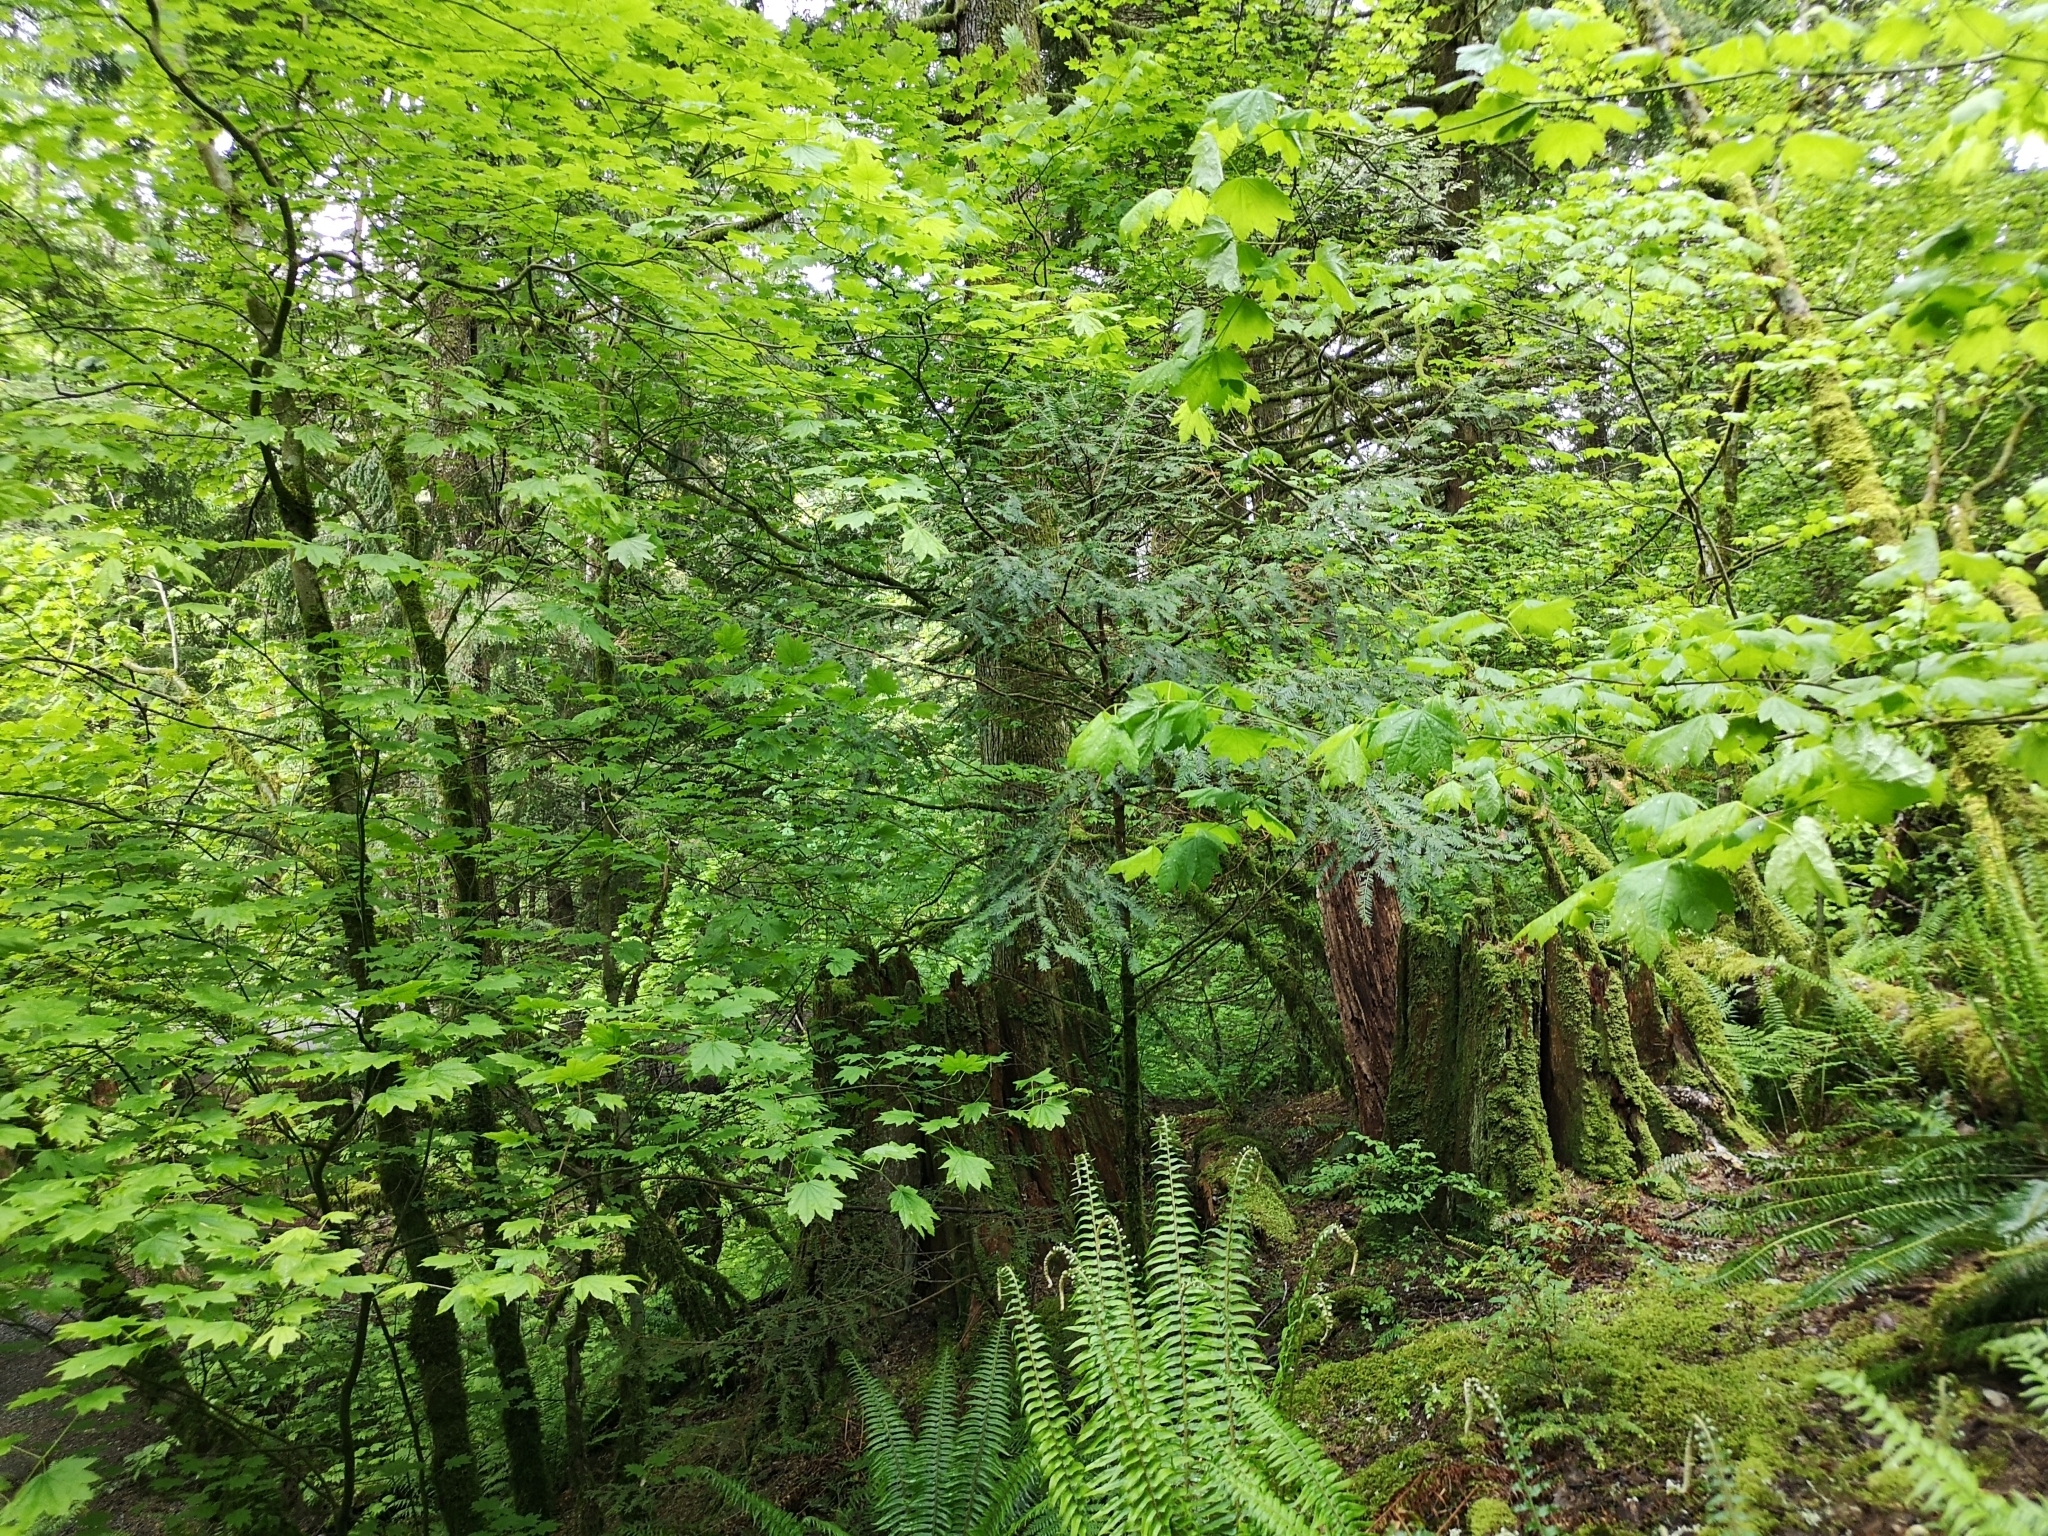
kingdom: Plantae
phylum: Tracheophyta
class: Pinopsida
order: Pinales
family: Taxaceae
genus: Taxus
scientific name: Taxus brevifolia
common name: Pacific yew
